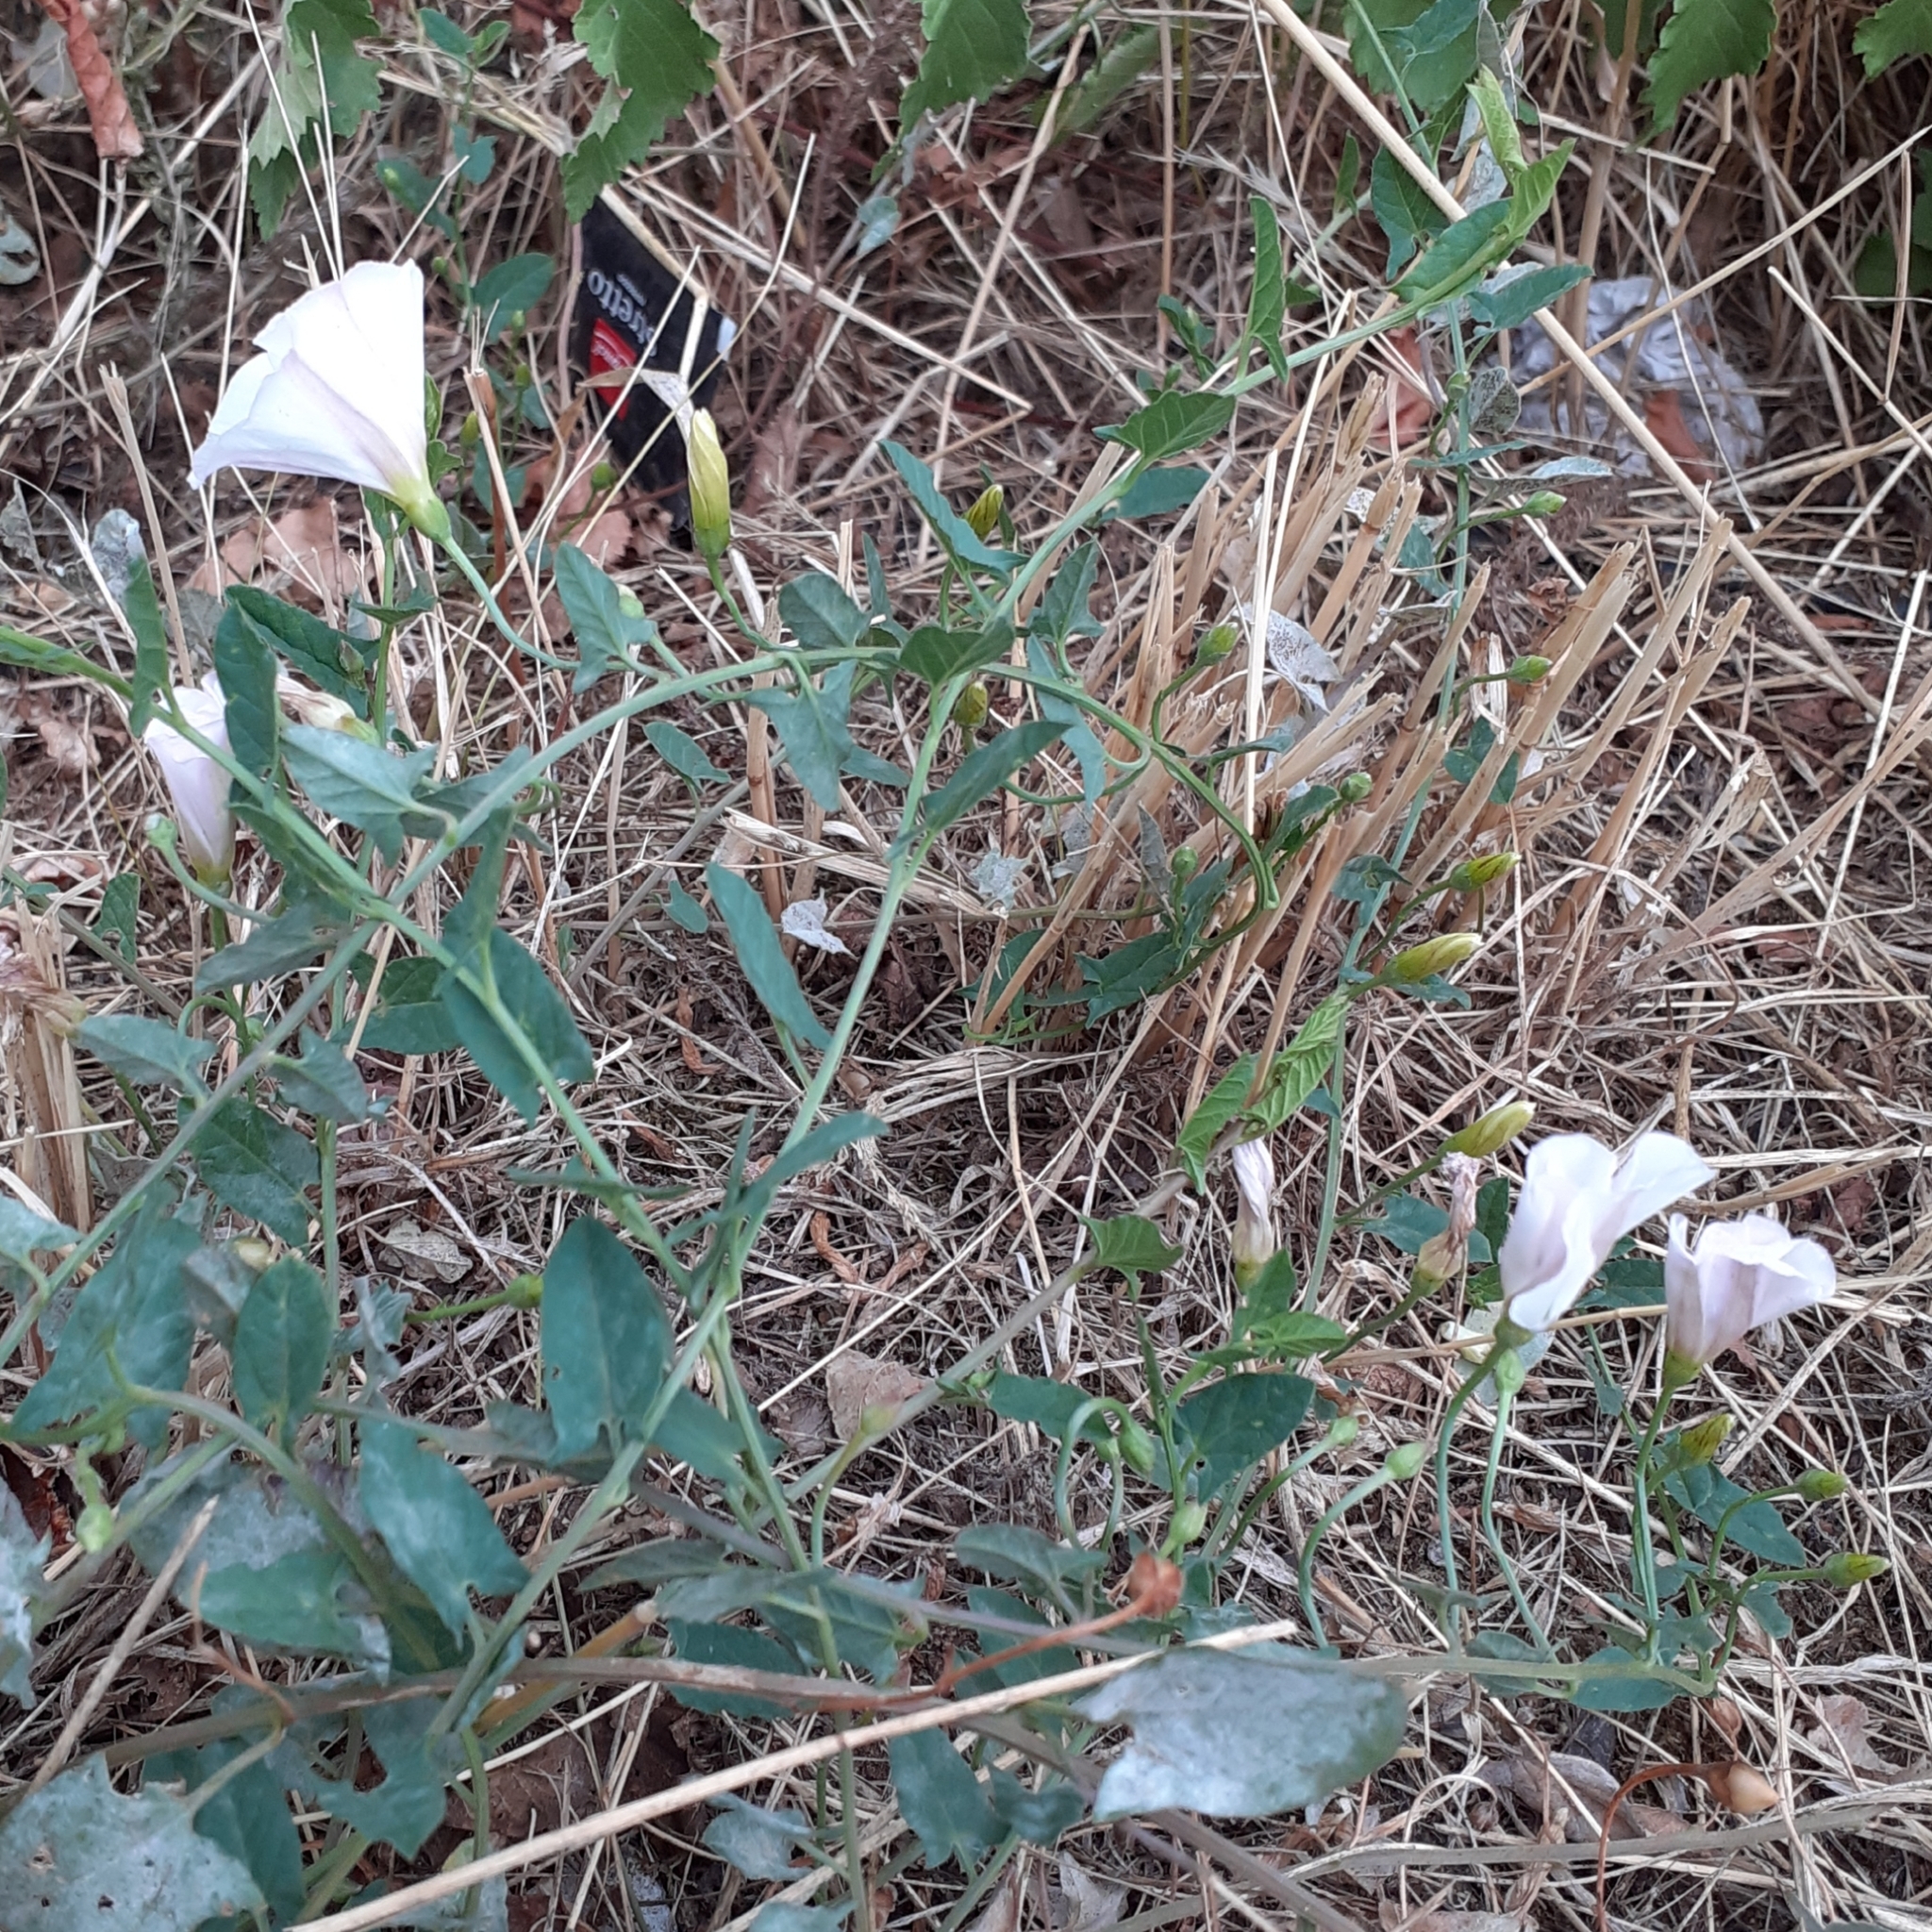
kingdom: Plantae
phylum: Tracheophyta
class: Magnoliopsida
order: Solanales
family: Convolvulaceae
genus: Convolvulus
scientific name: Convolvulus arvensis
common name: Field bindweed
